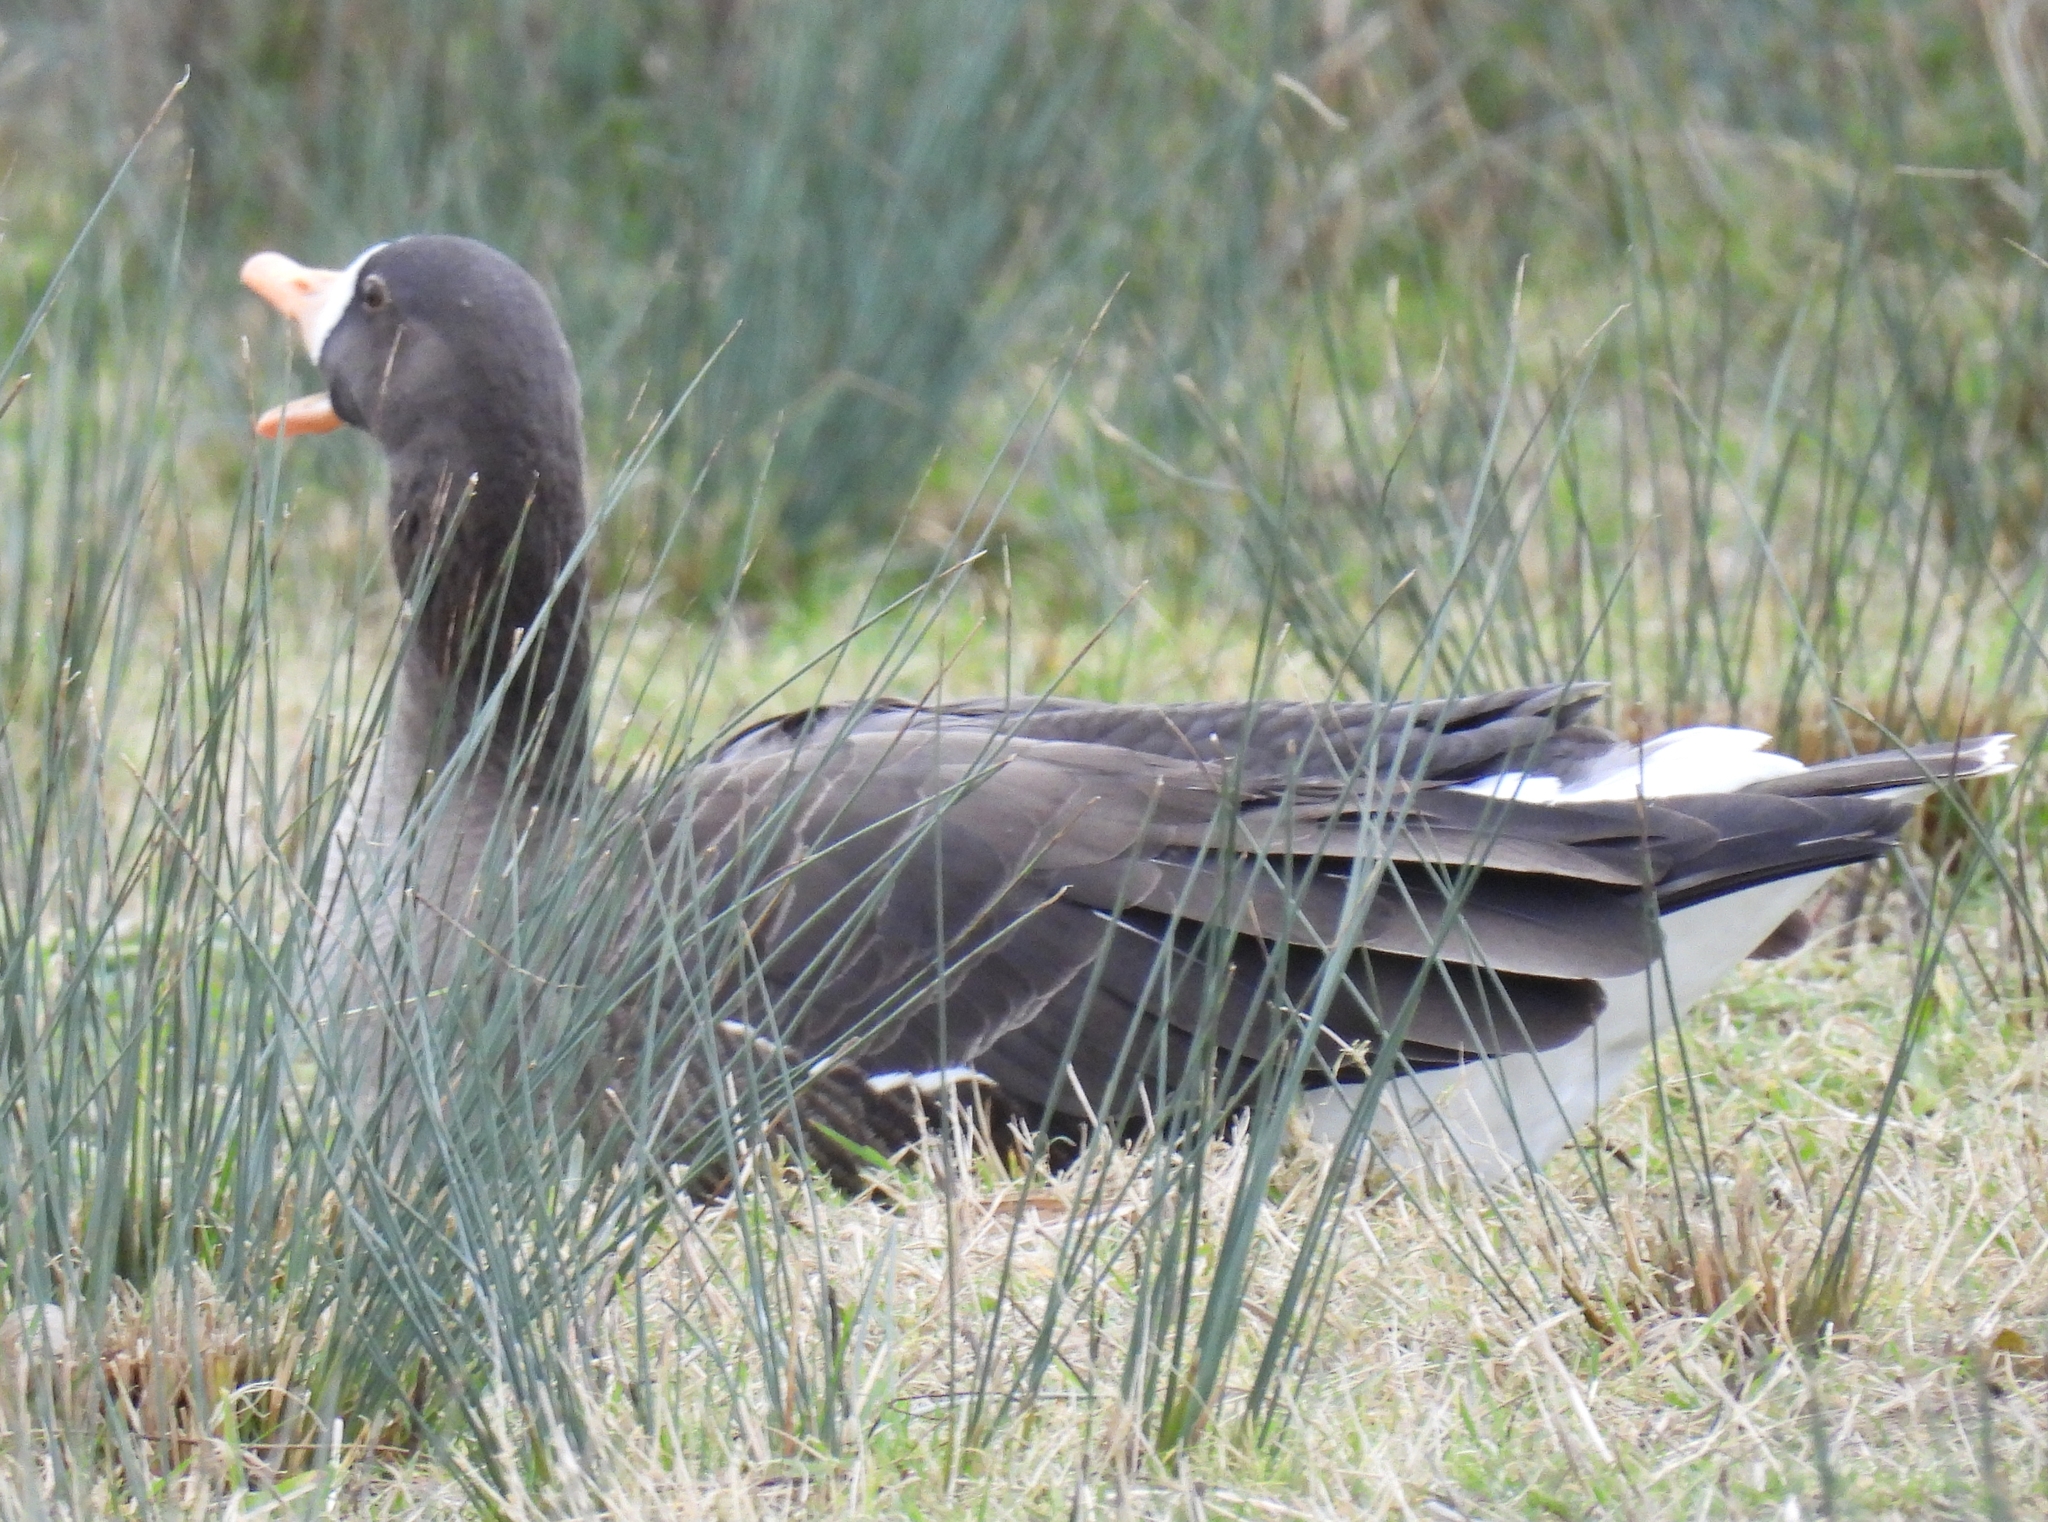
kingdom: Animalia
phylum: Chordata
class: Aves
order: Anseriformes
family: Anatidae
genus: Anser
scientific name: Anser albifrons
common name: Greater white-fronted goose
